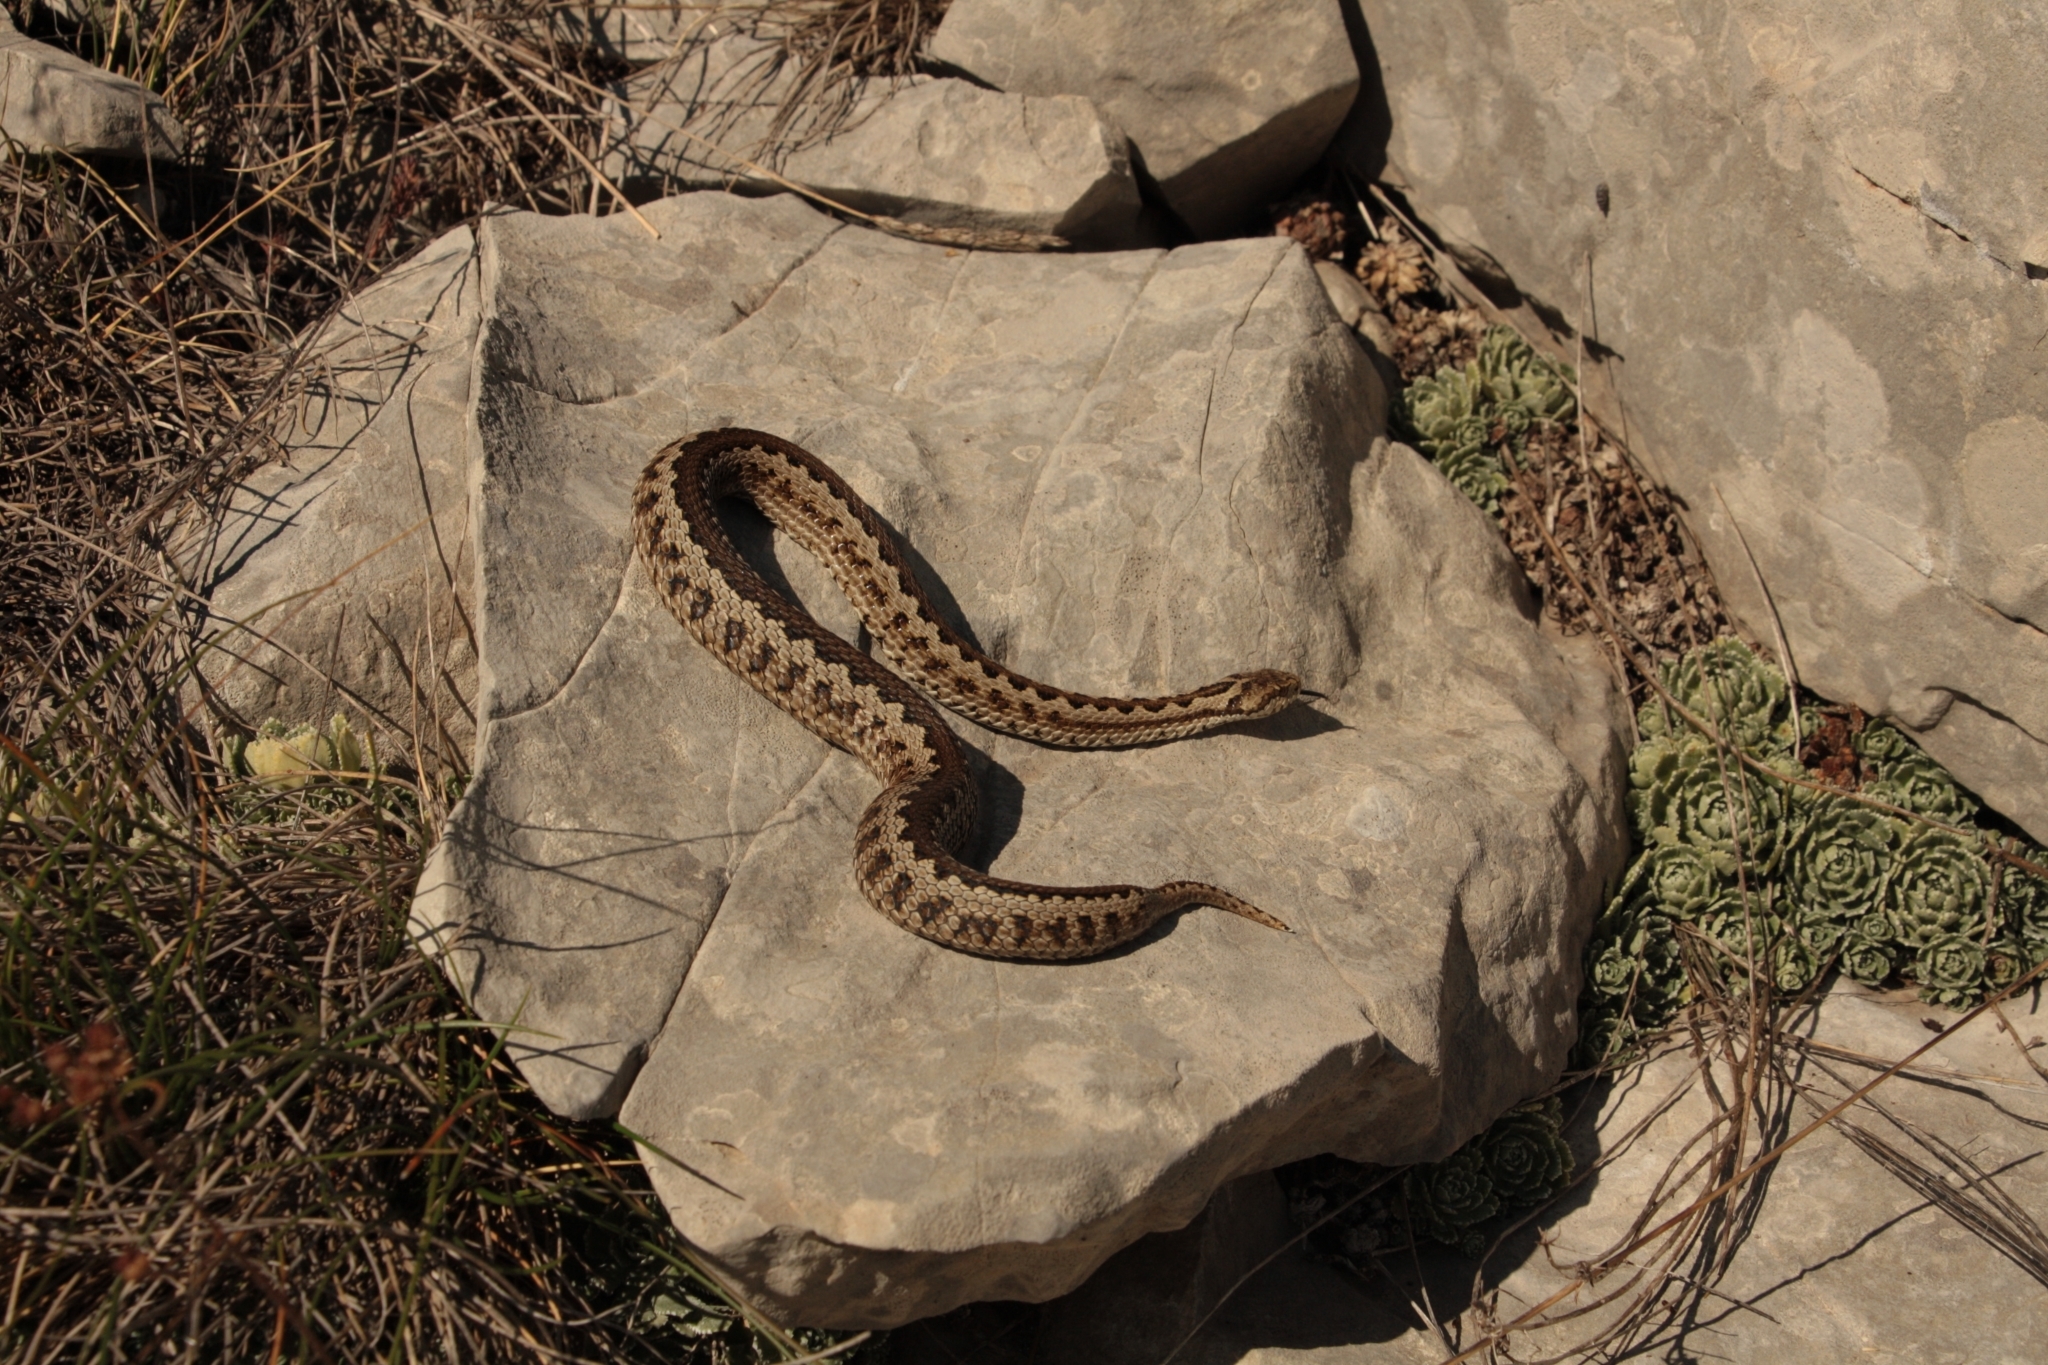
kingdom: Animalia
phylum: Chordata
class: Squamata
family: Viperidae
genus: Vipera
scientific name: Vipera ursinii
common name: Meadow viper
